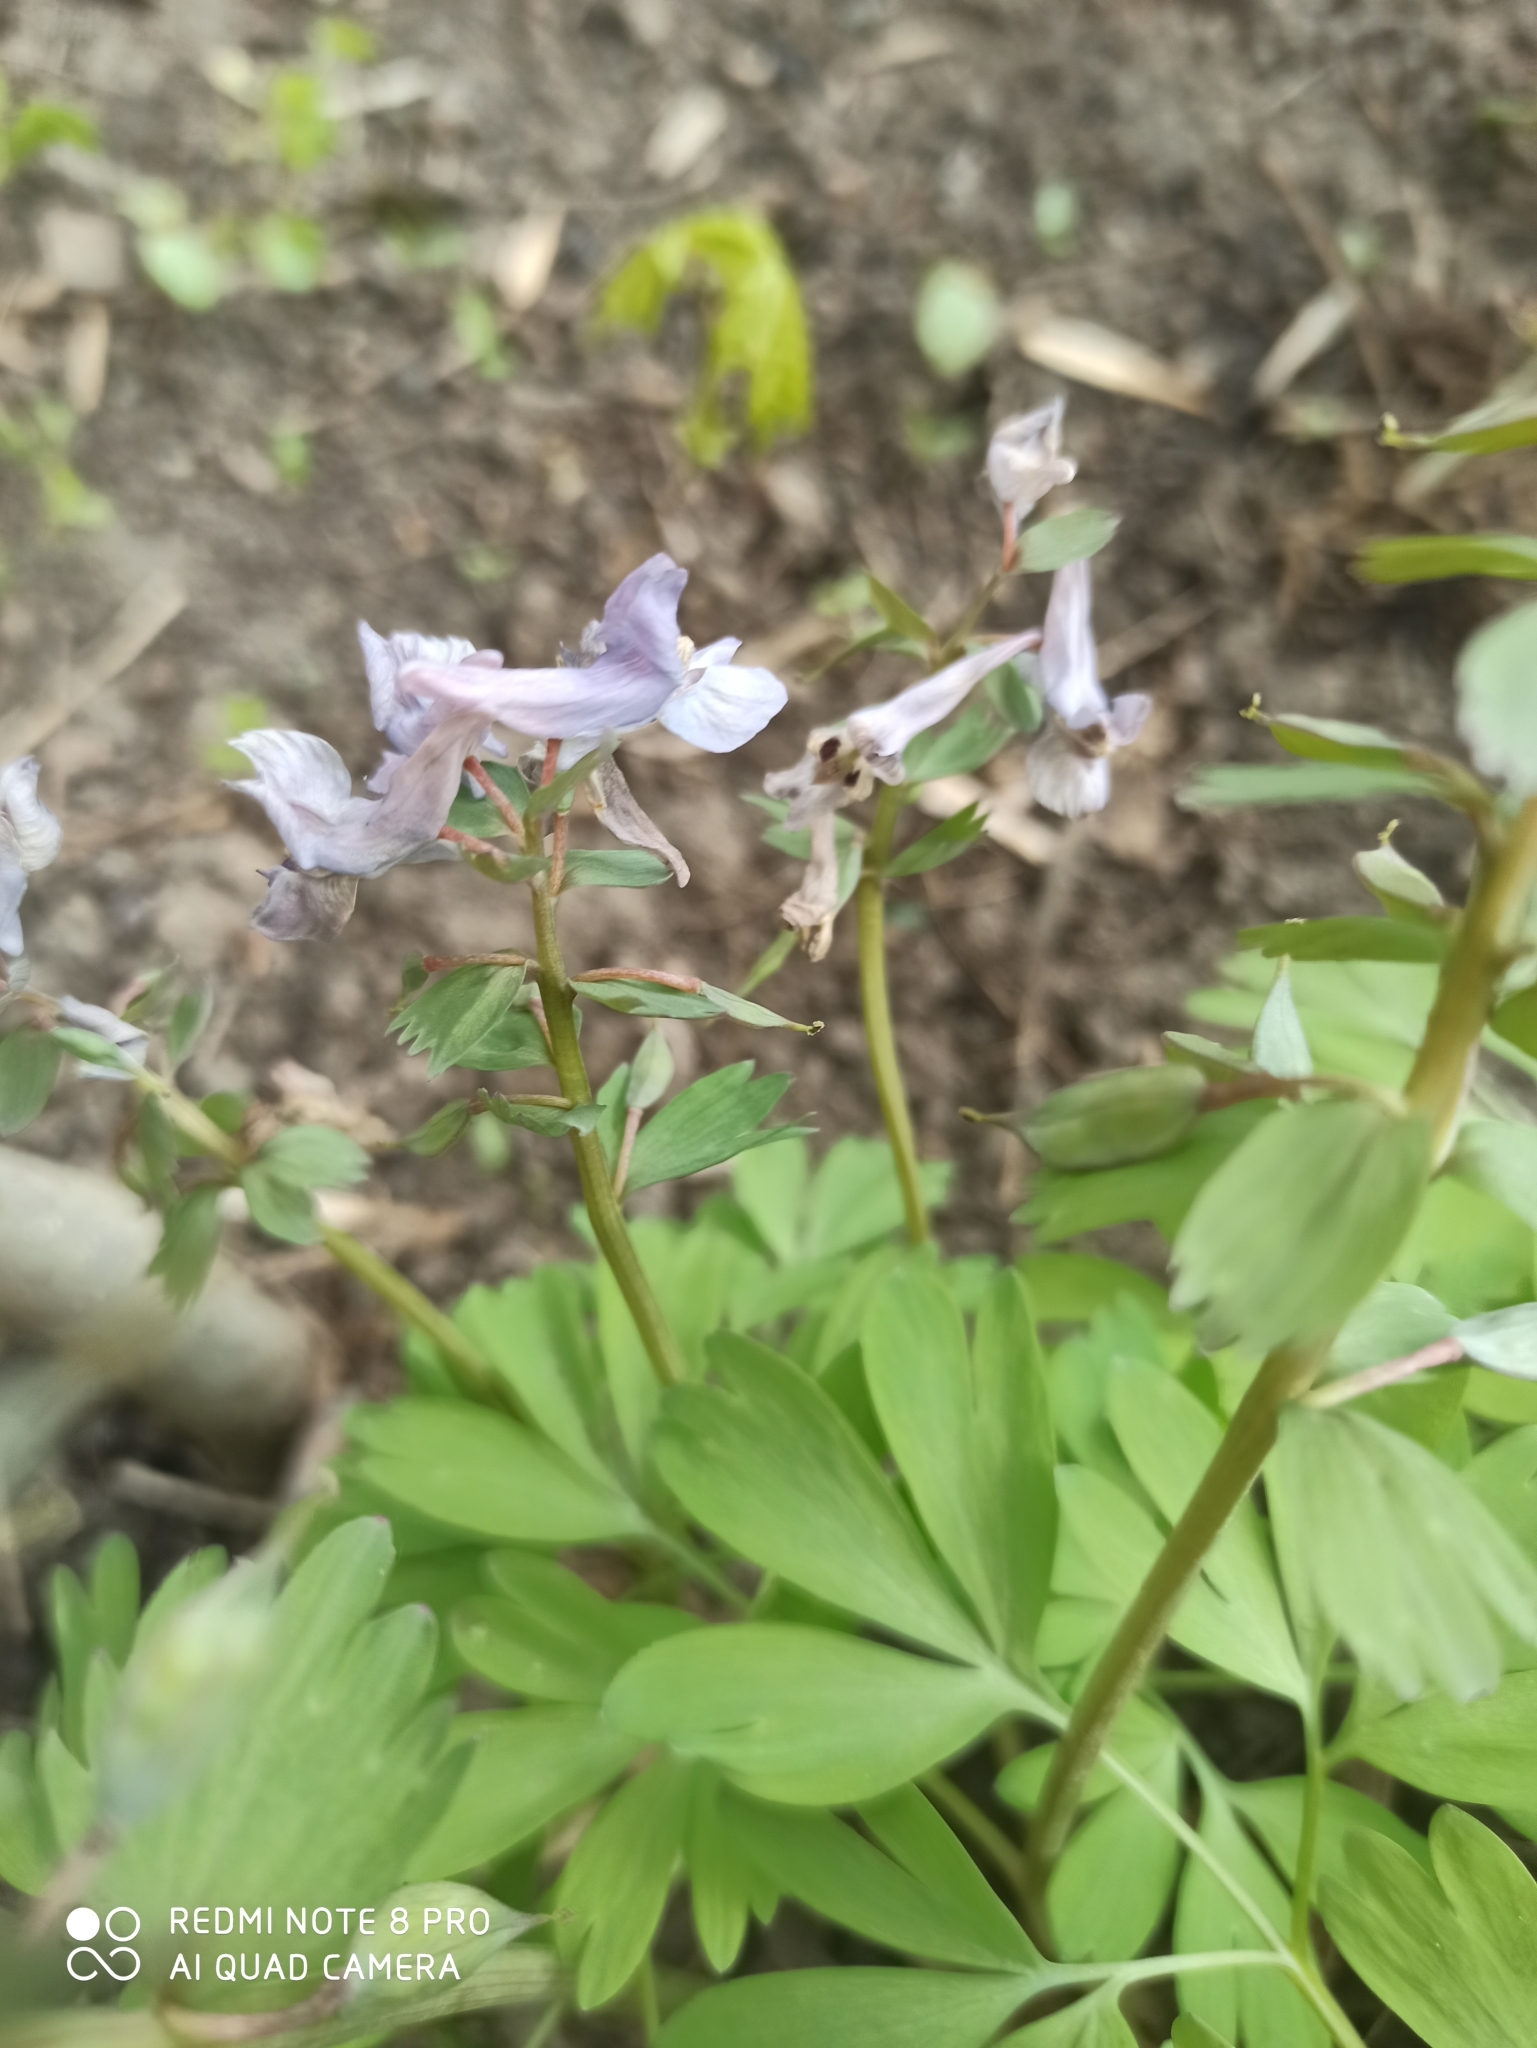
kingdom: Plantae
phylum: Tracheophyta
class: Magnoliopsida
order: Ranunculales
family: Papaveraceae
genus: Corydalis
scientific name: Corydalis solida
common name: Bird-in-a-bush
